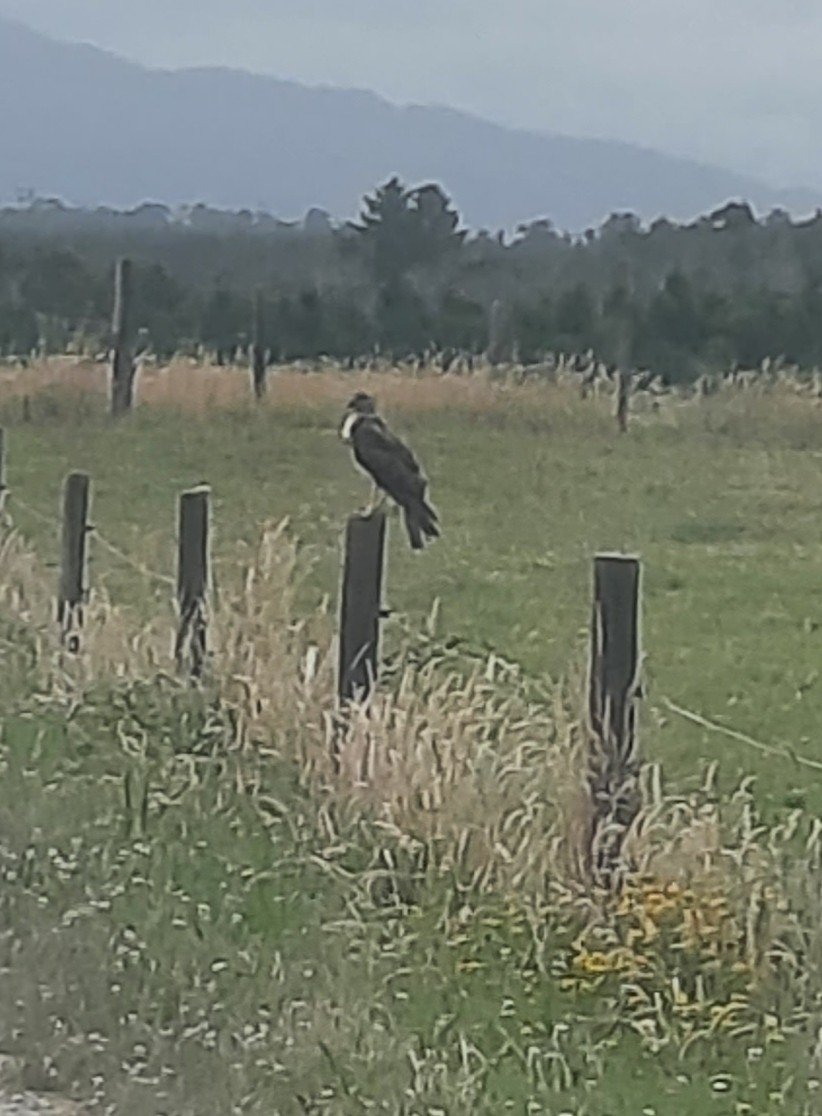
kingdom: Animalia
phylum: Chordata
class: Aves
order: Accipitriformes
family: Accipitridae
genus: Circus
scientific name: Circus approximans
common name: Swamp harrier
